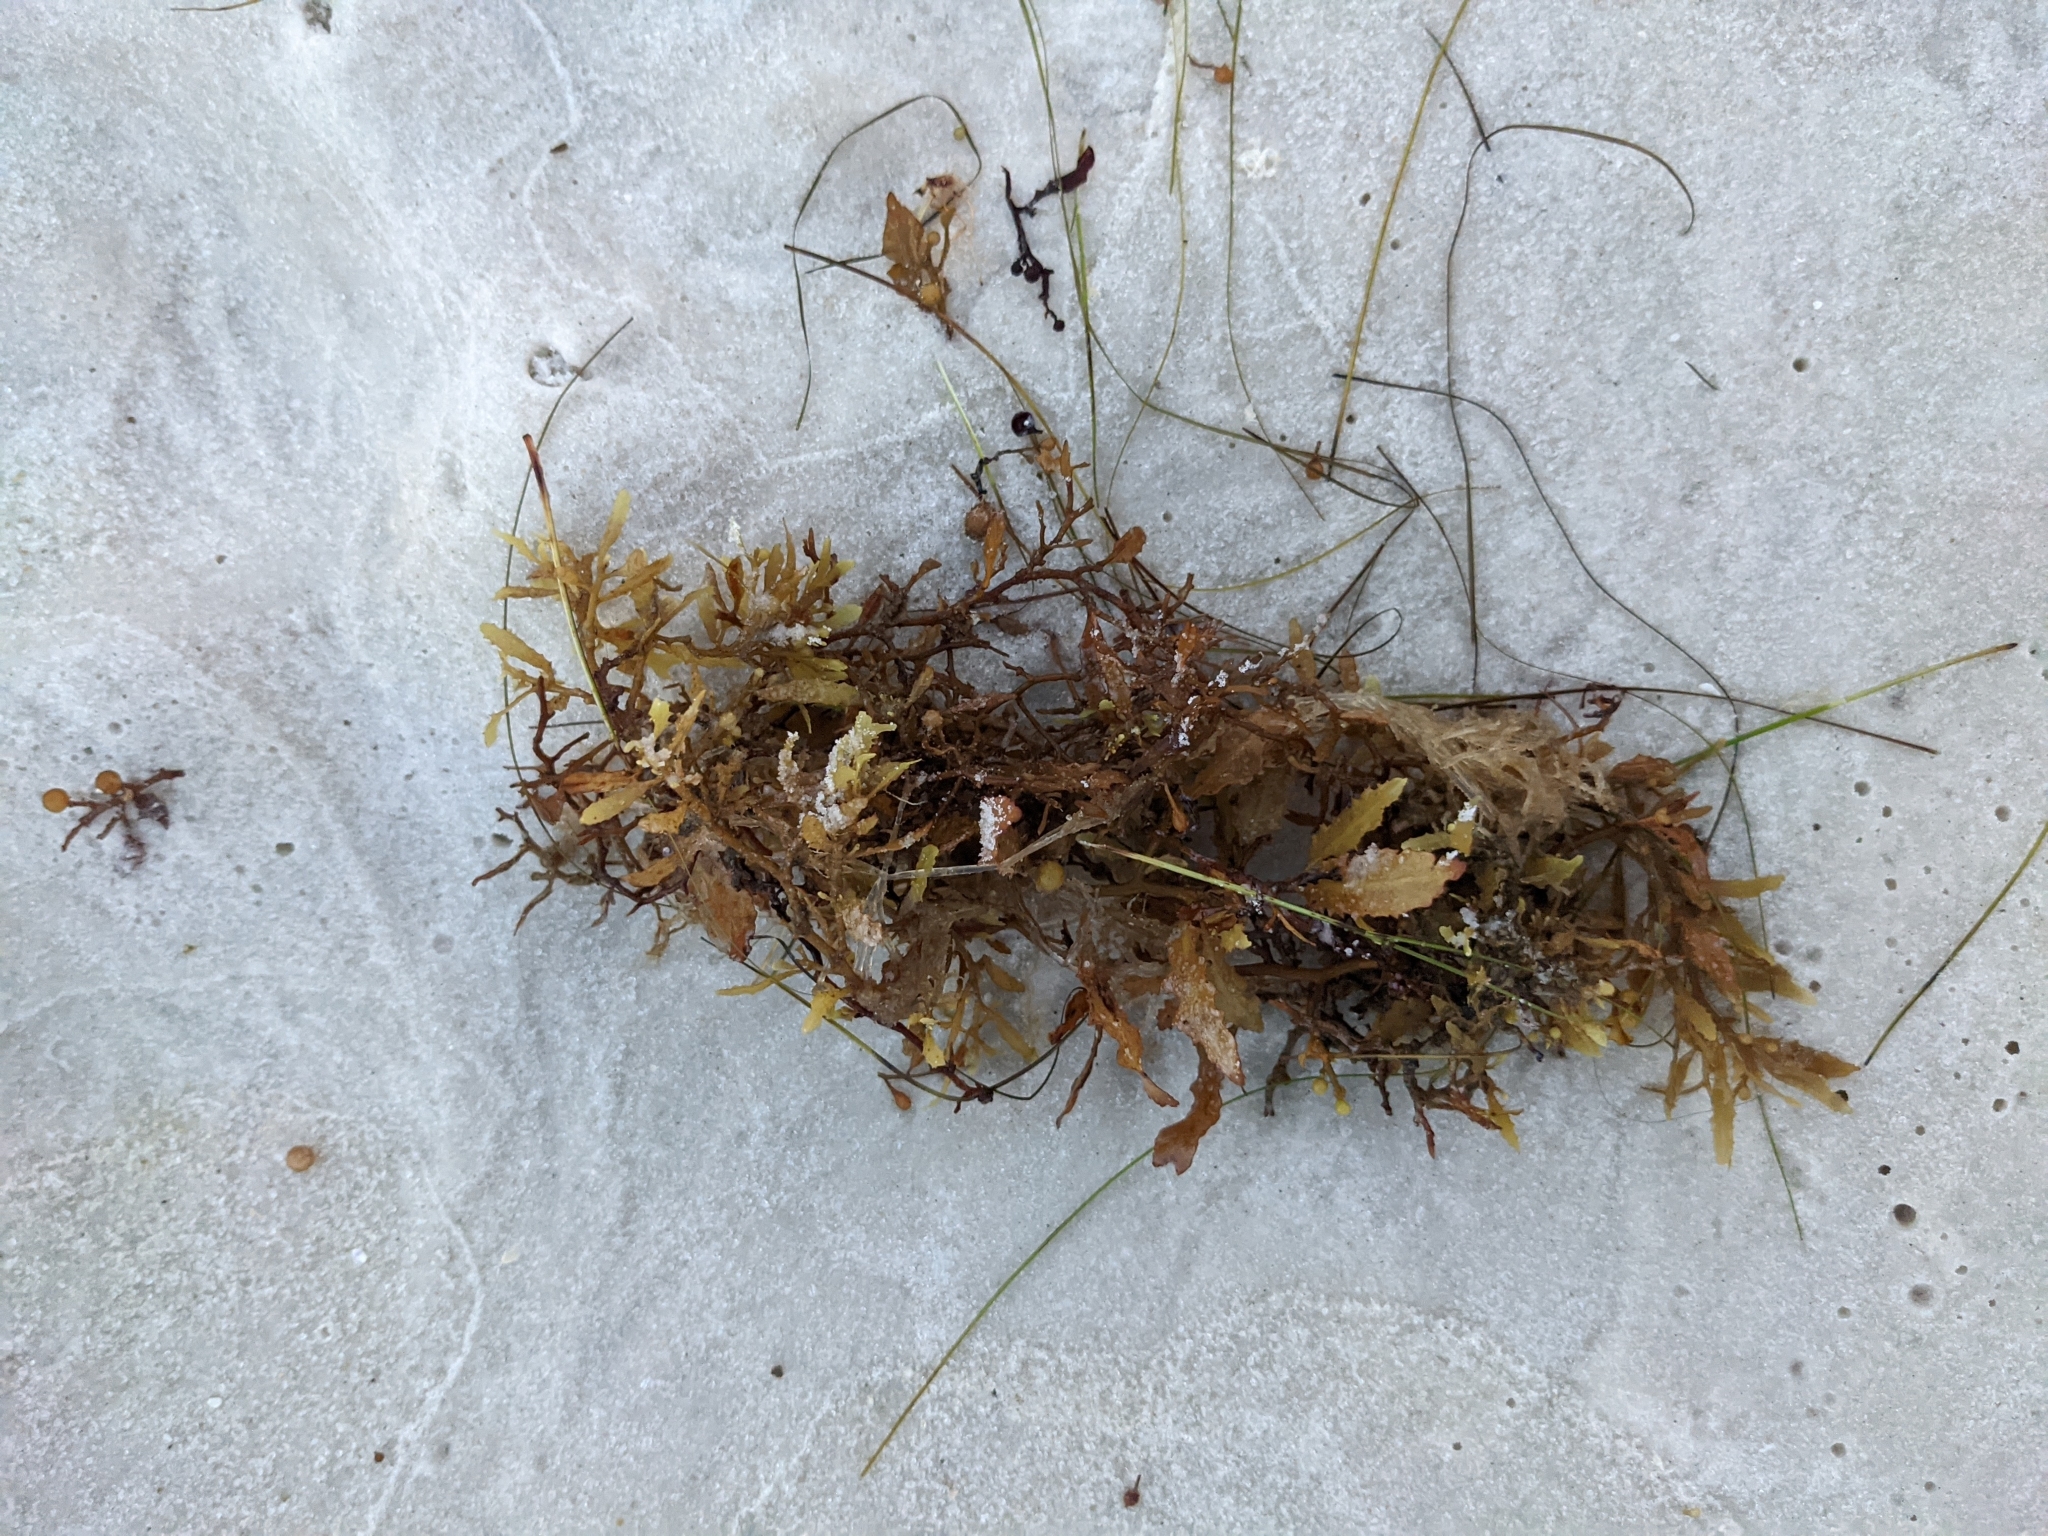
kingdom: Chromista
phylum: Ochrophyta
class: Phaeophyceae
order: Fucales
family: Sargassaceae
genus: Sargassum
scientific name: Sargassum fluitans
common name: Sargassum seaweed
